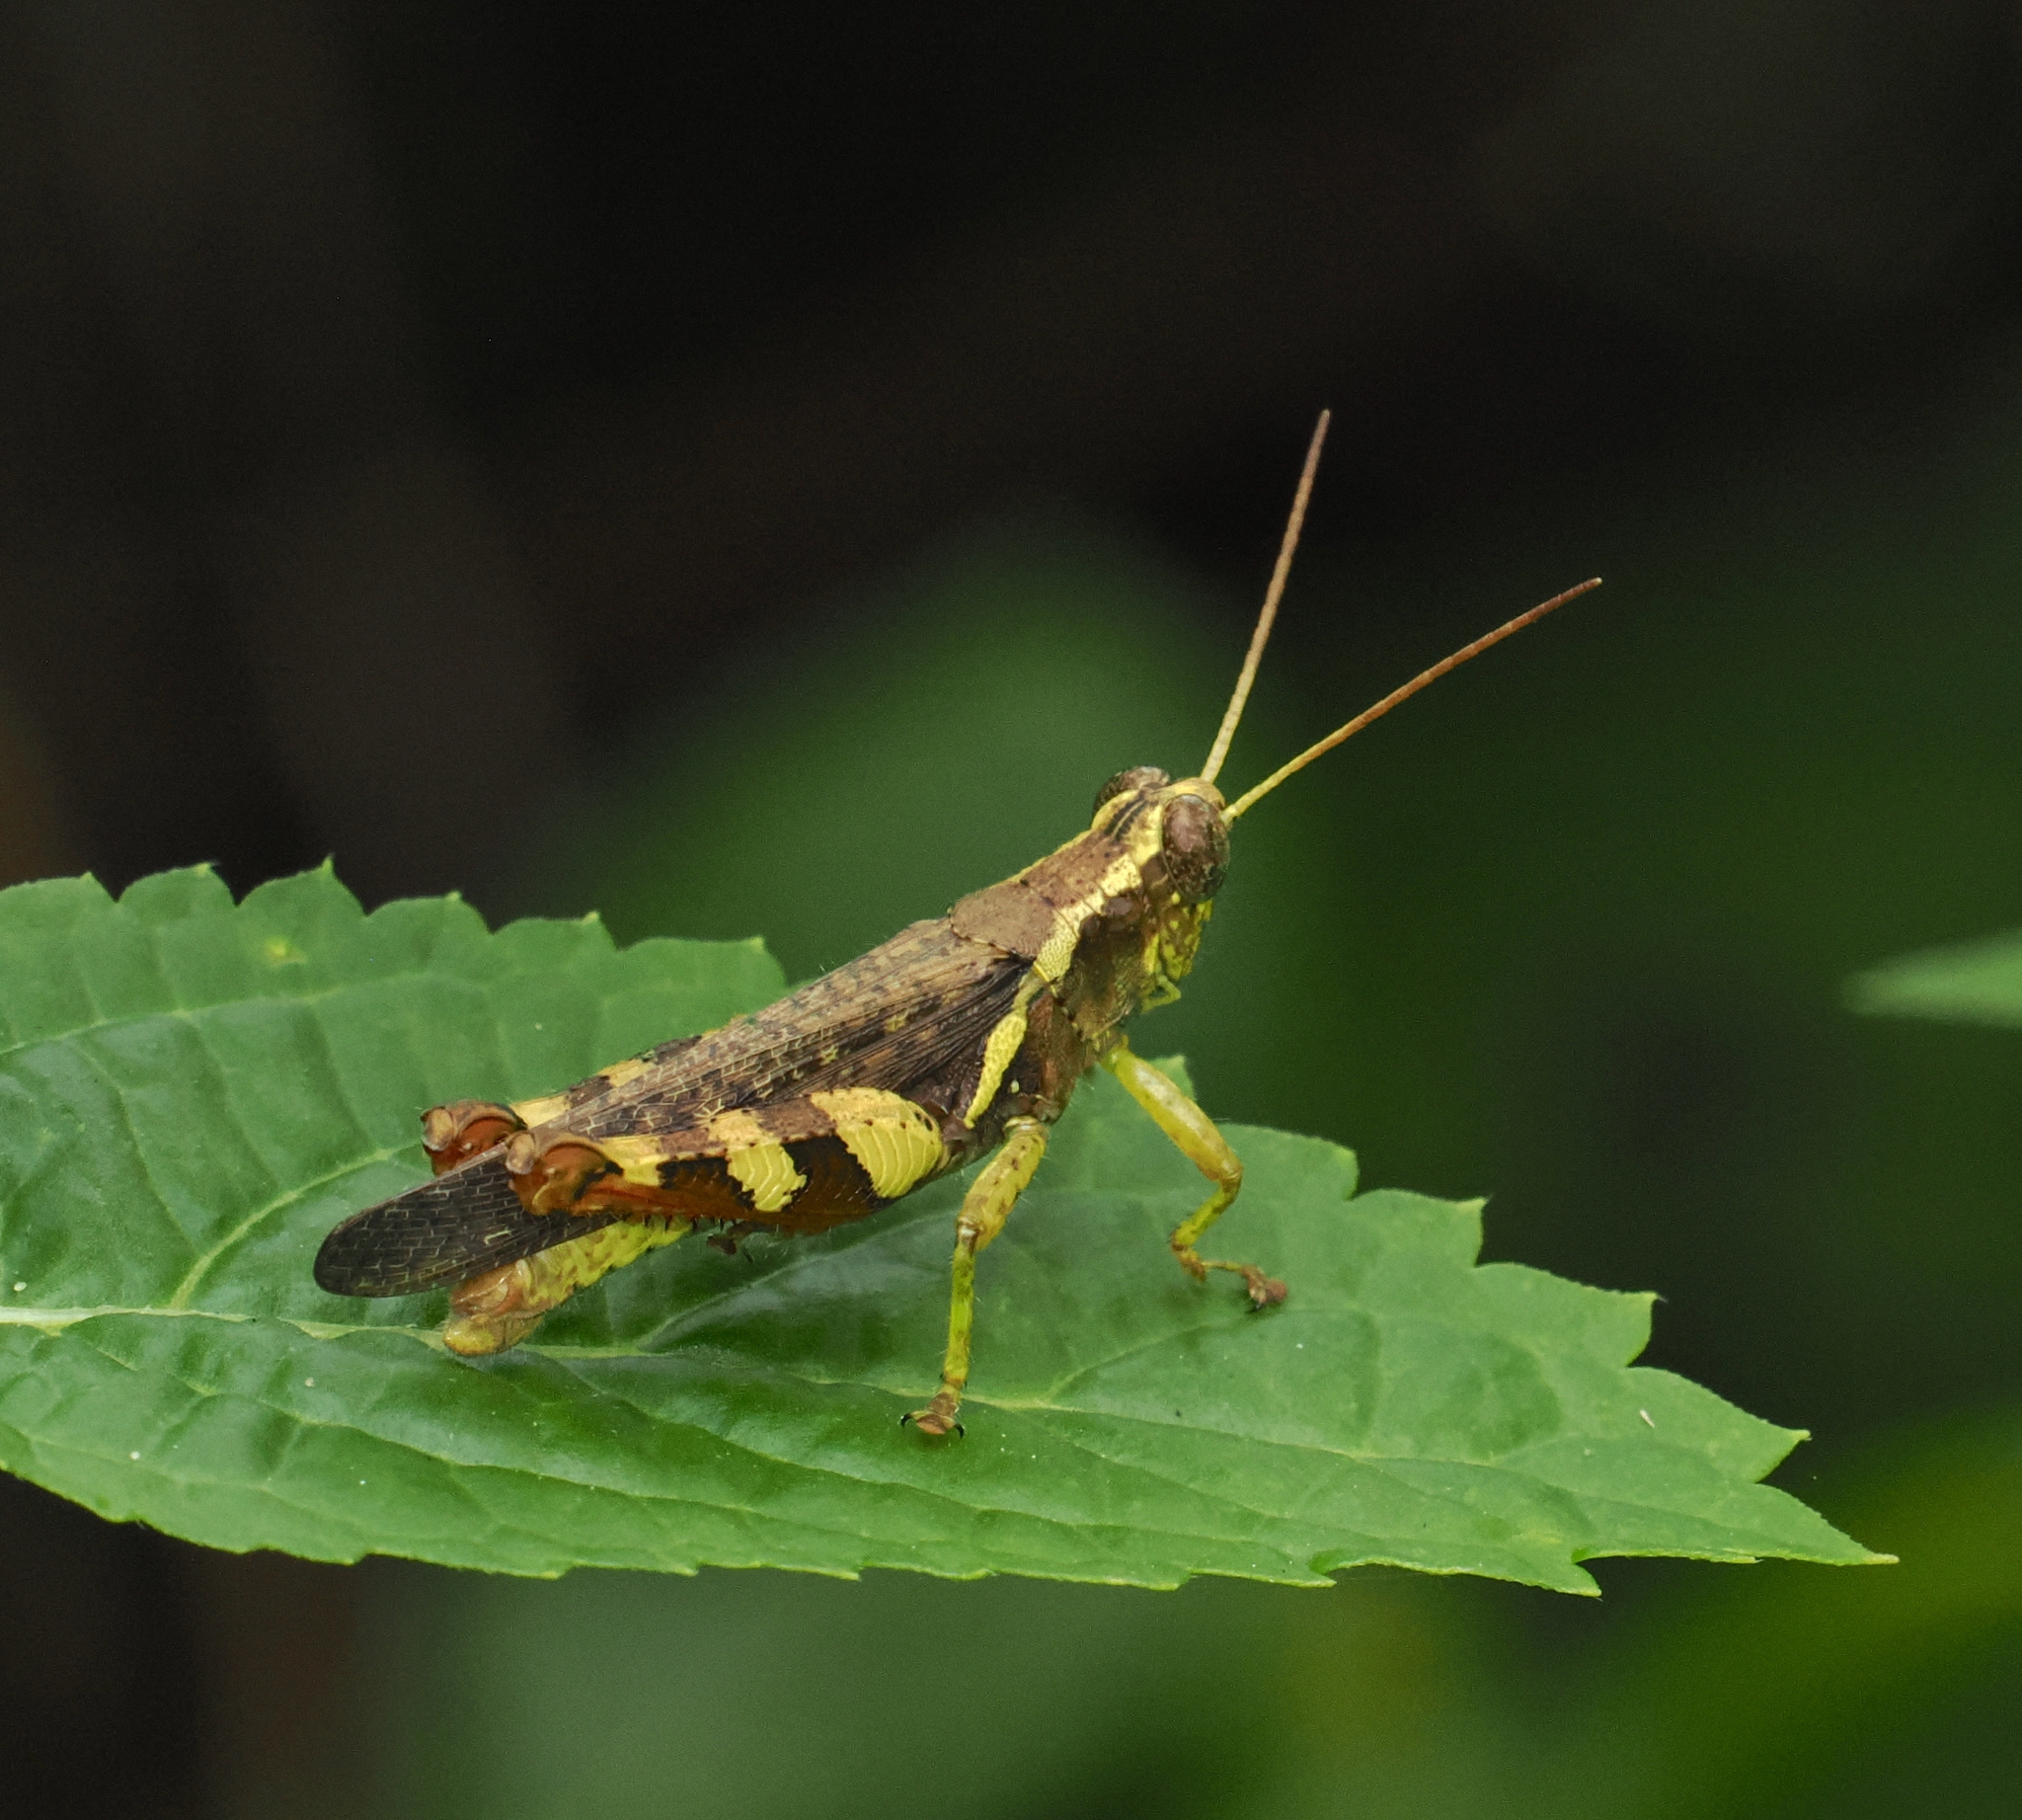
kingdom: Animalia
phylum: Arthropoda
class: Insecta
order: Orthoptera
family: Acrididae
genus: Xenocatantops
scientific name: Xenocatantops humile
